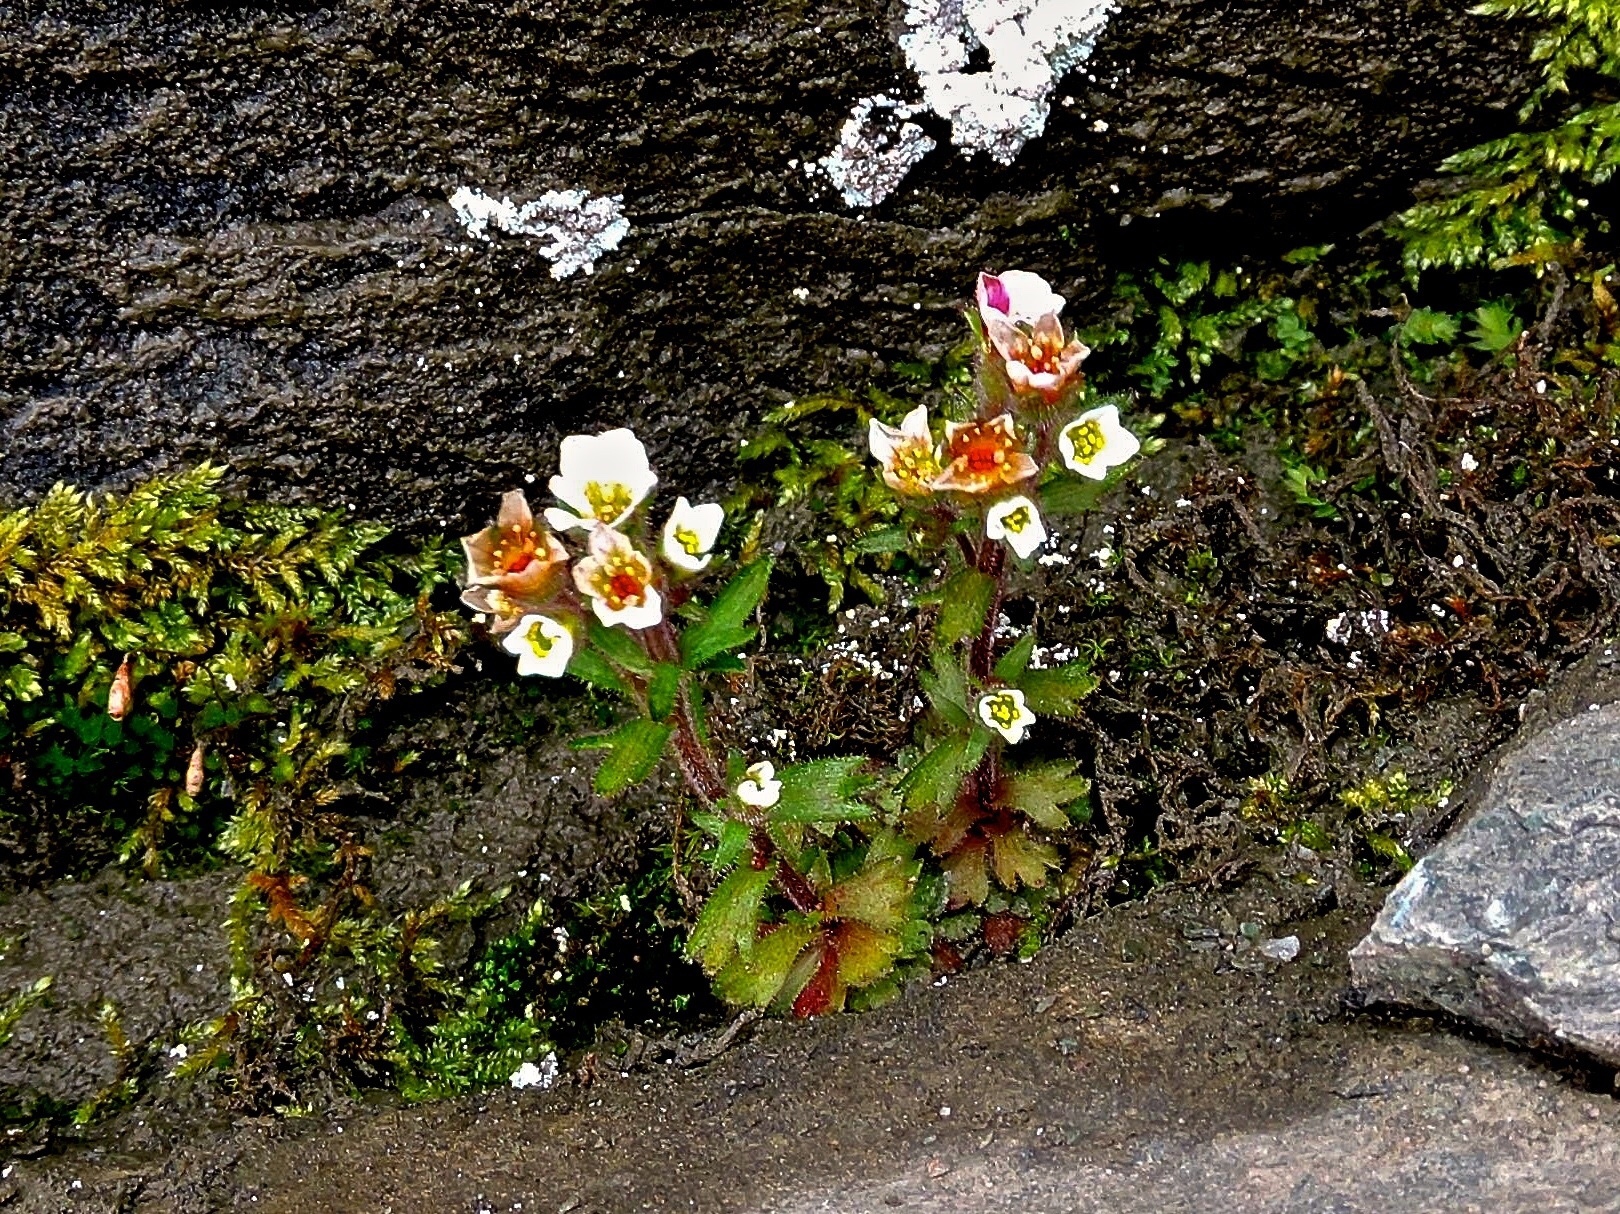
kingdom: Plantae
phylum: Tracheophyta
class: Magnoliopsida
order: Saxifragales
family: Saxifragaceae
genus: Saxifraga
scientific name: Saxifraga adscendens
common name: Ascending saxifrage
